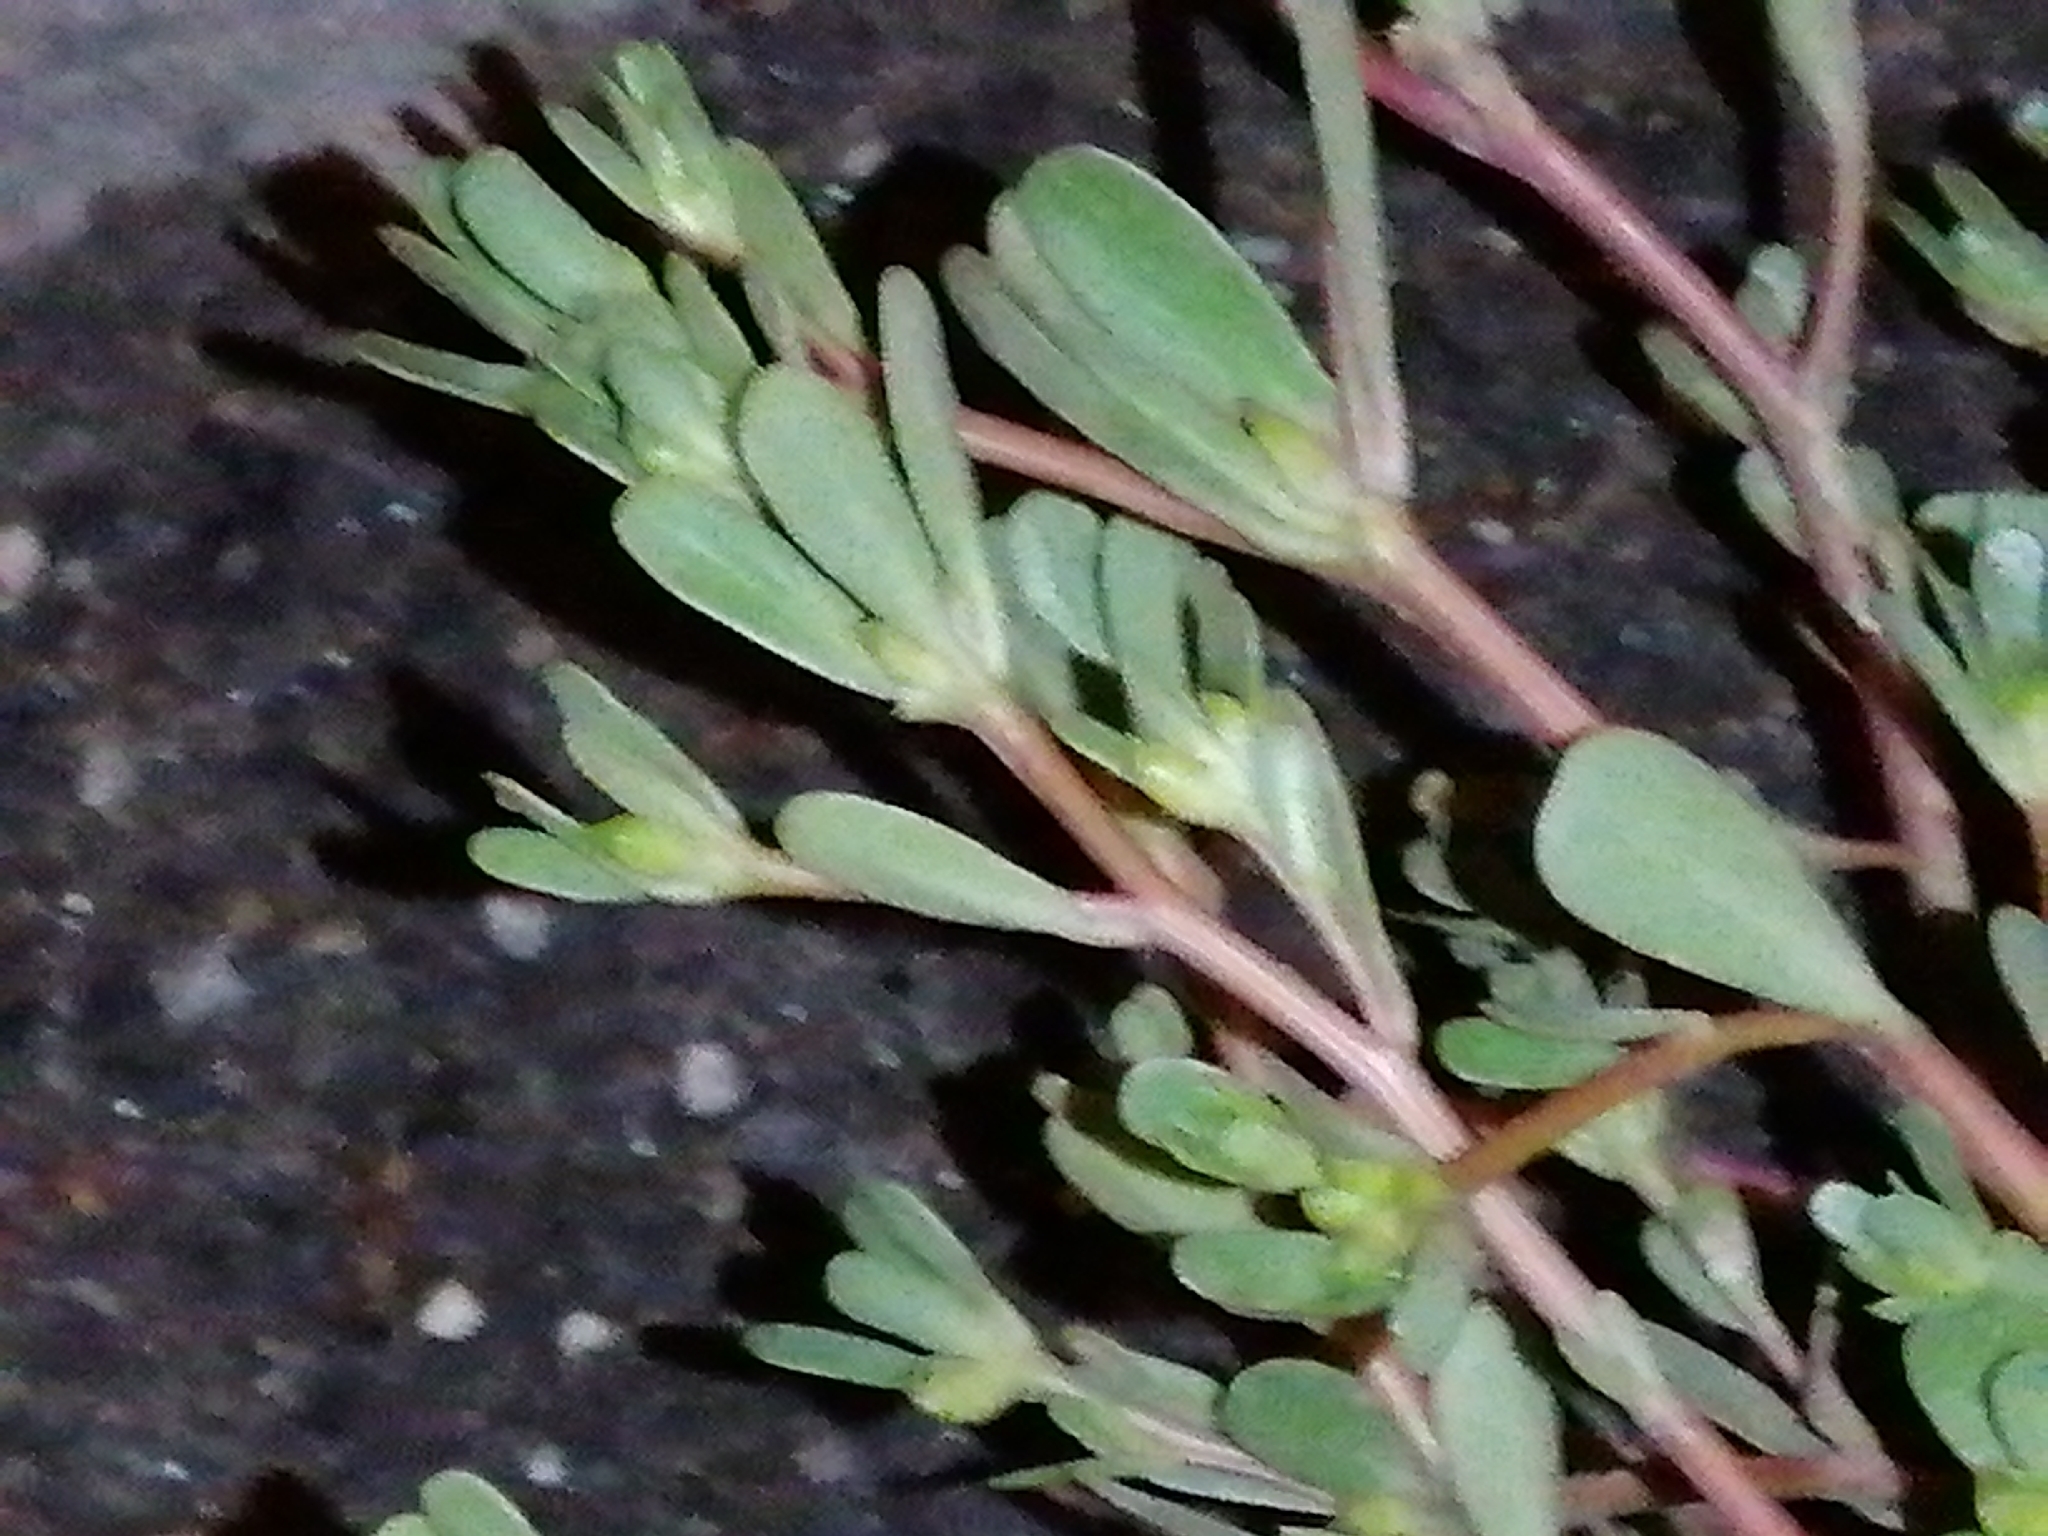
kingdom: Plantae
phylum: Tracheophyta
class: Magnoliopsida
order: Caryophyllales
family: Portulacaceae
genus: Portulaca
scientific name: Portulaca oleracea
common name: Common purslane
